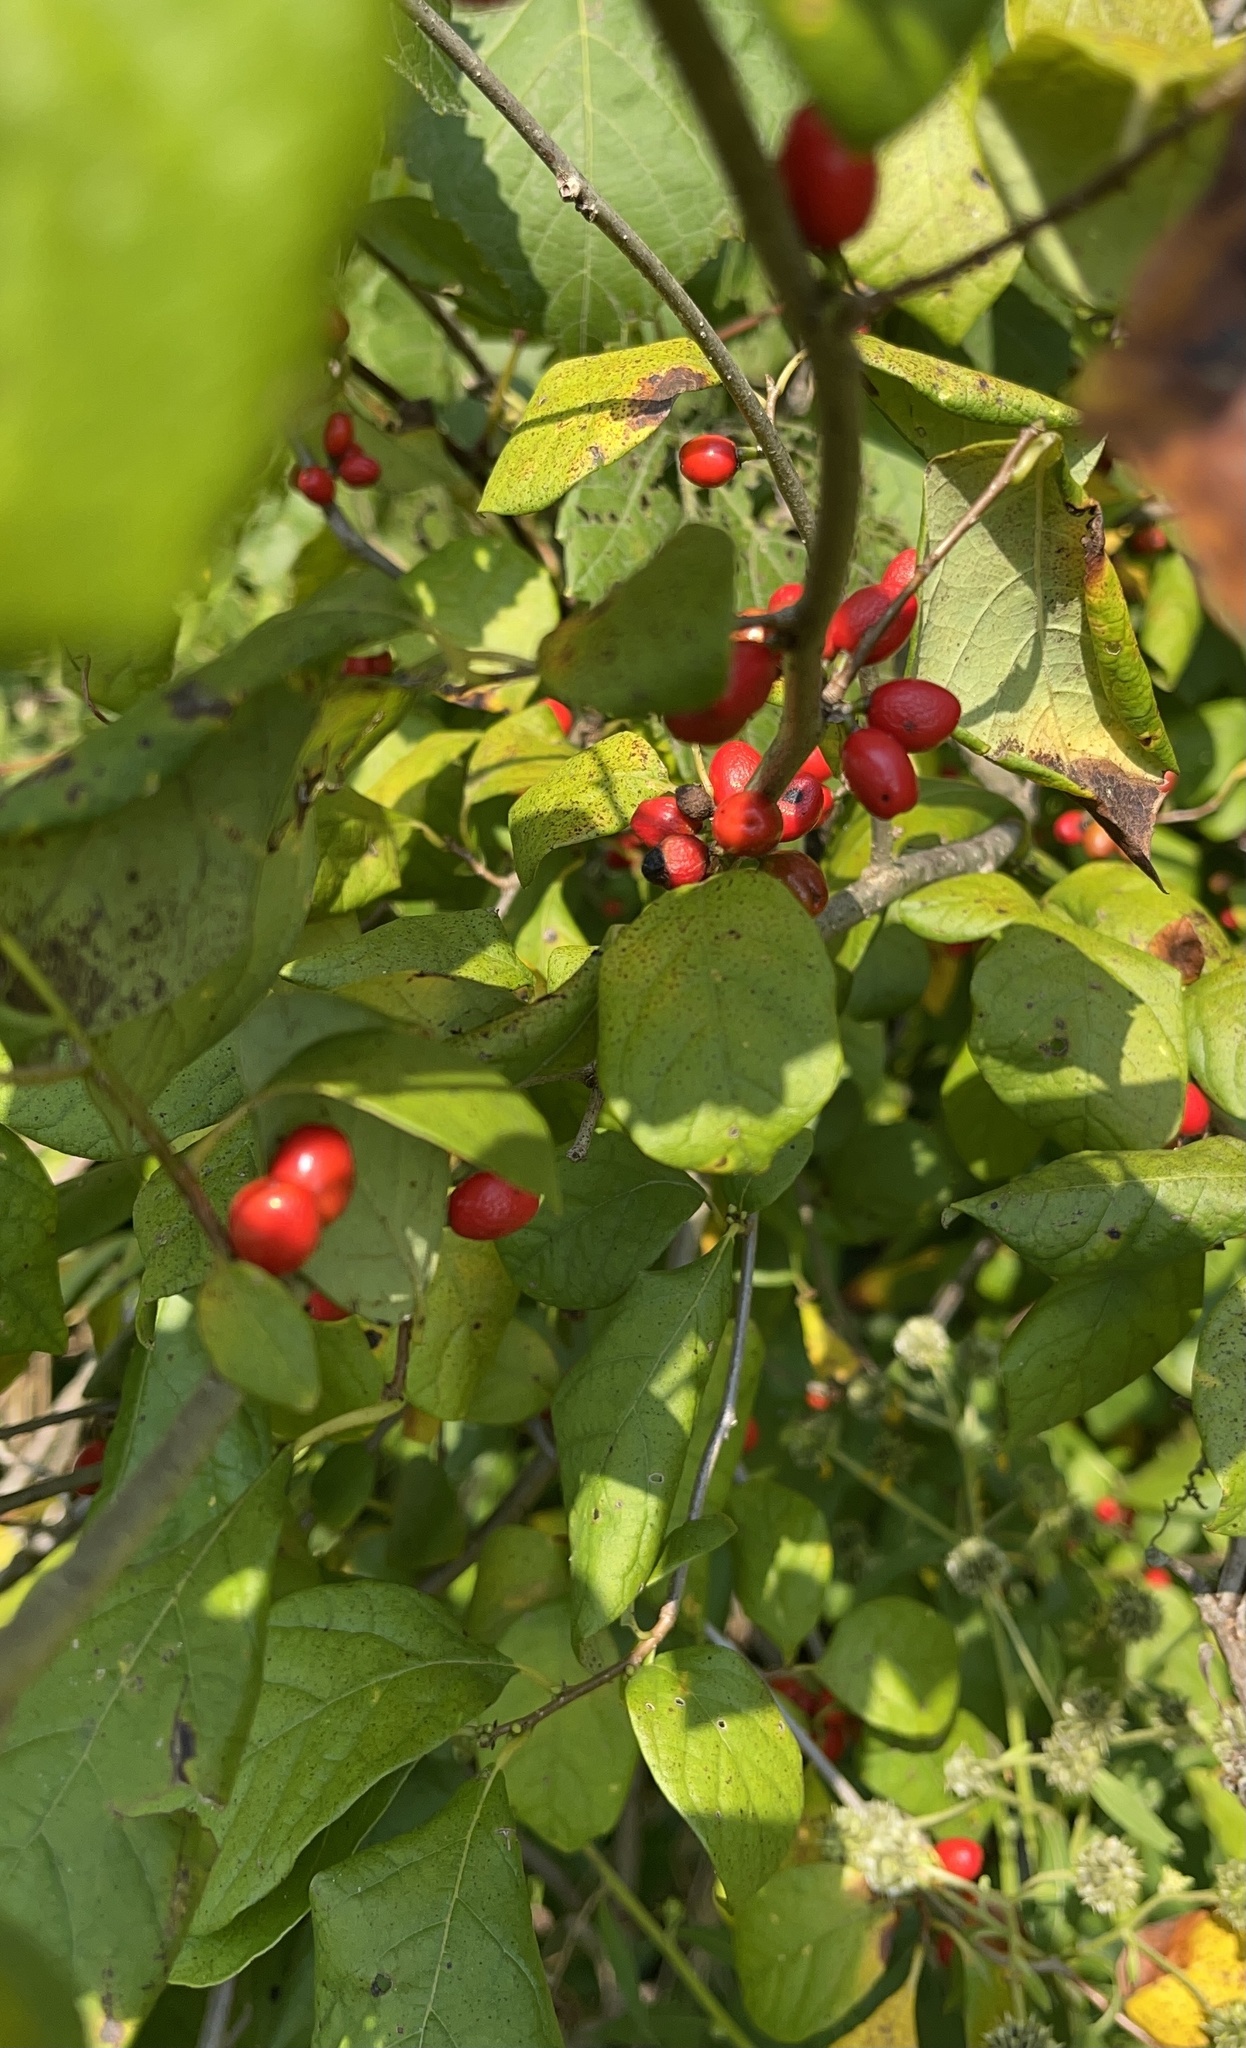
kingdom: Plantae
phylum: Tracheophyta
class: Magnoliopsida
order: Laurales
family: Lauraceae
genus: Lindera
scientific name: Lindera benzoin
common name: Spicebush
